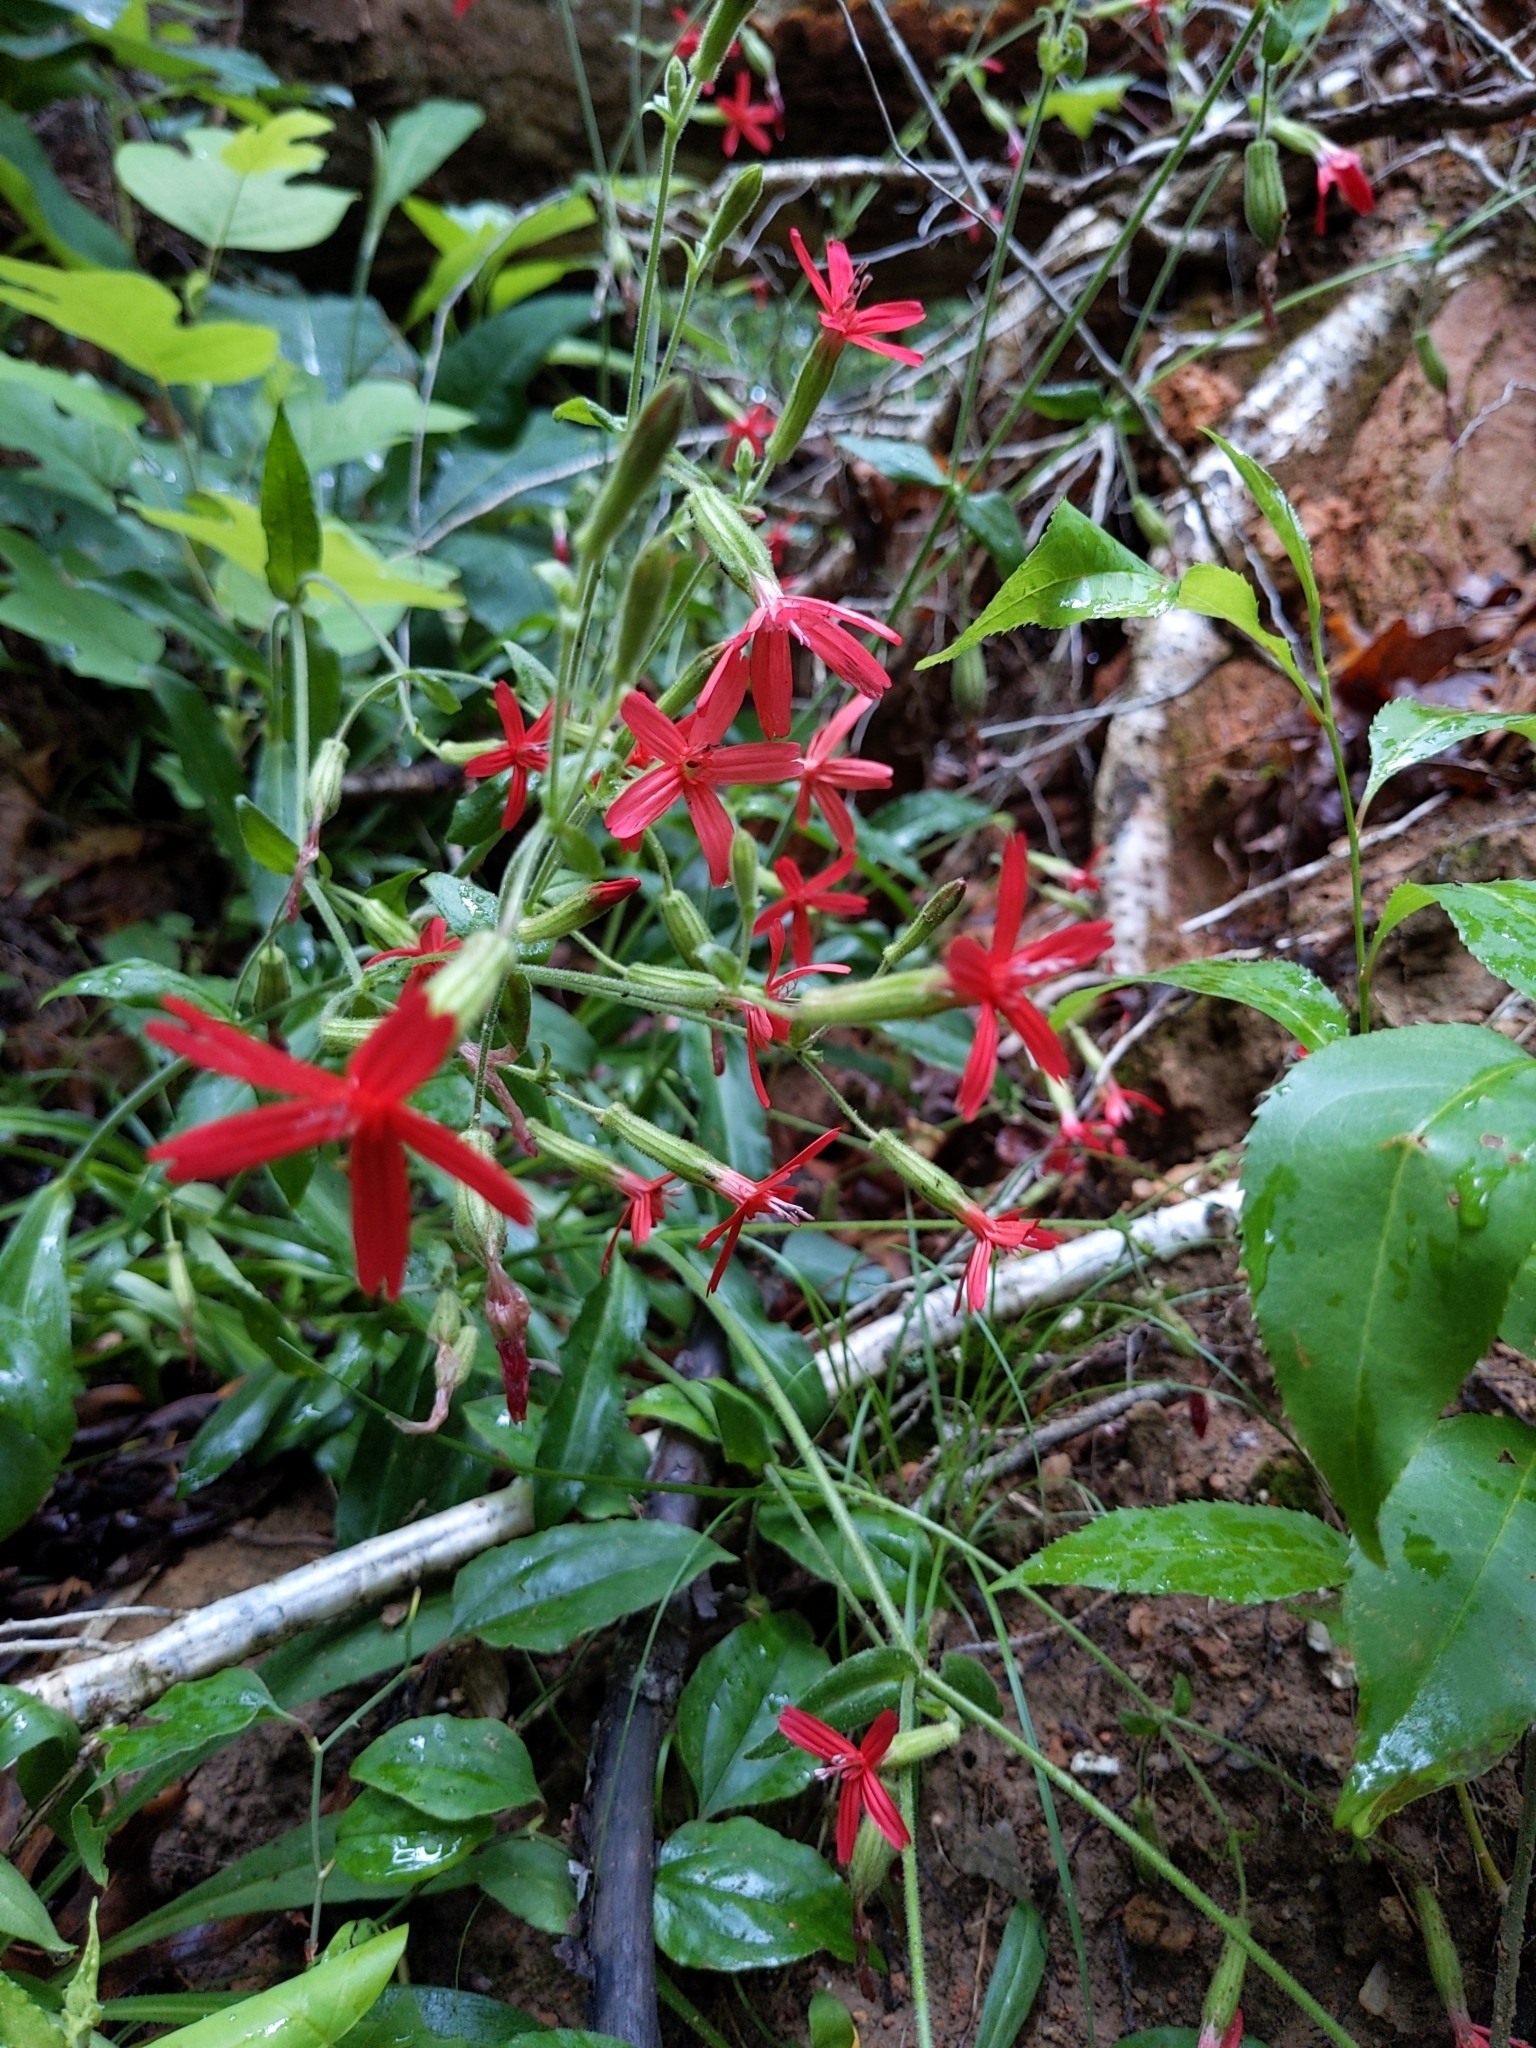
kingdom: Plantae
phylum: Tracheophyta
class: Magnoliopsida
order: Caryophyllales
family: Caryophyllaceae
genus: Silene
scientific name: Silene virginica
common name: Fire-pink
